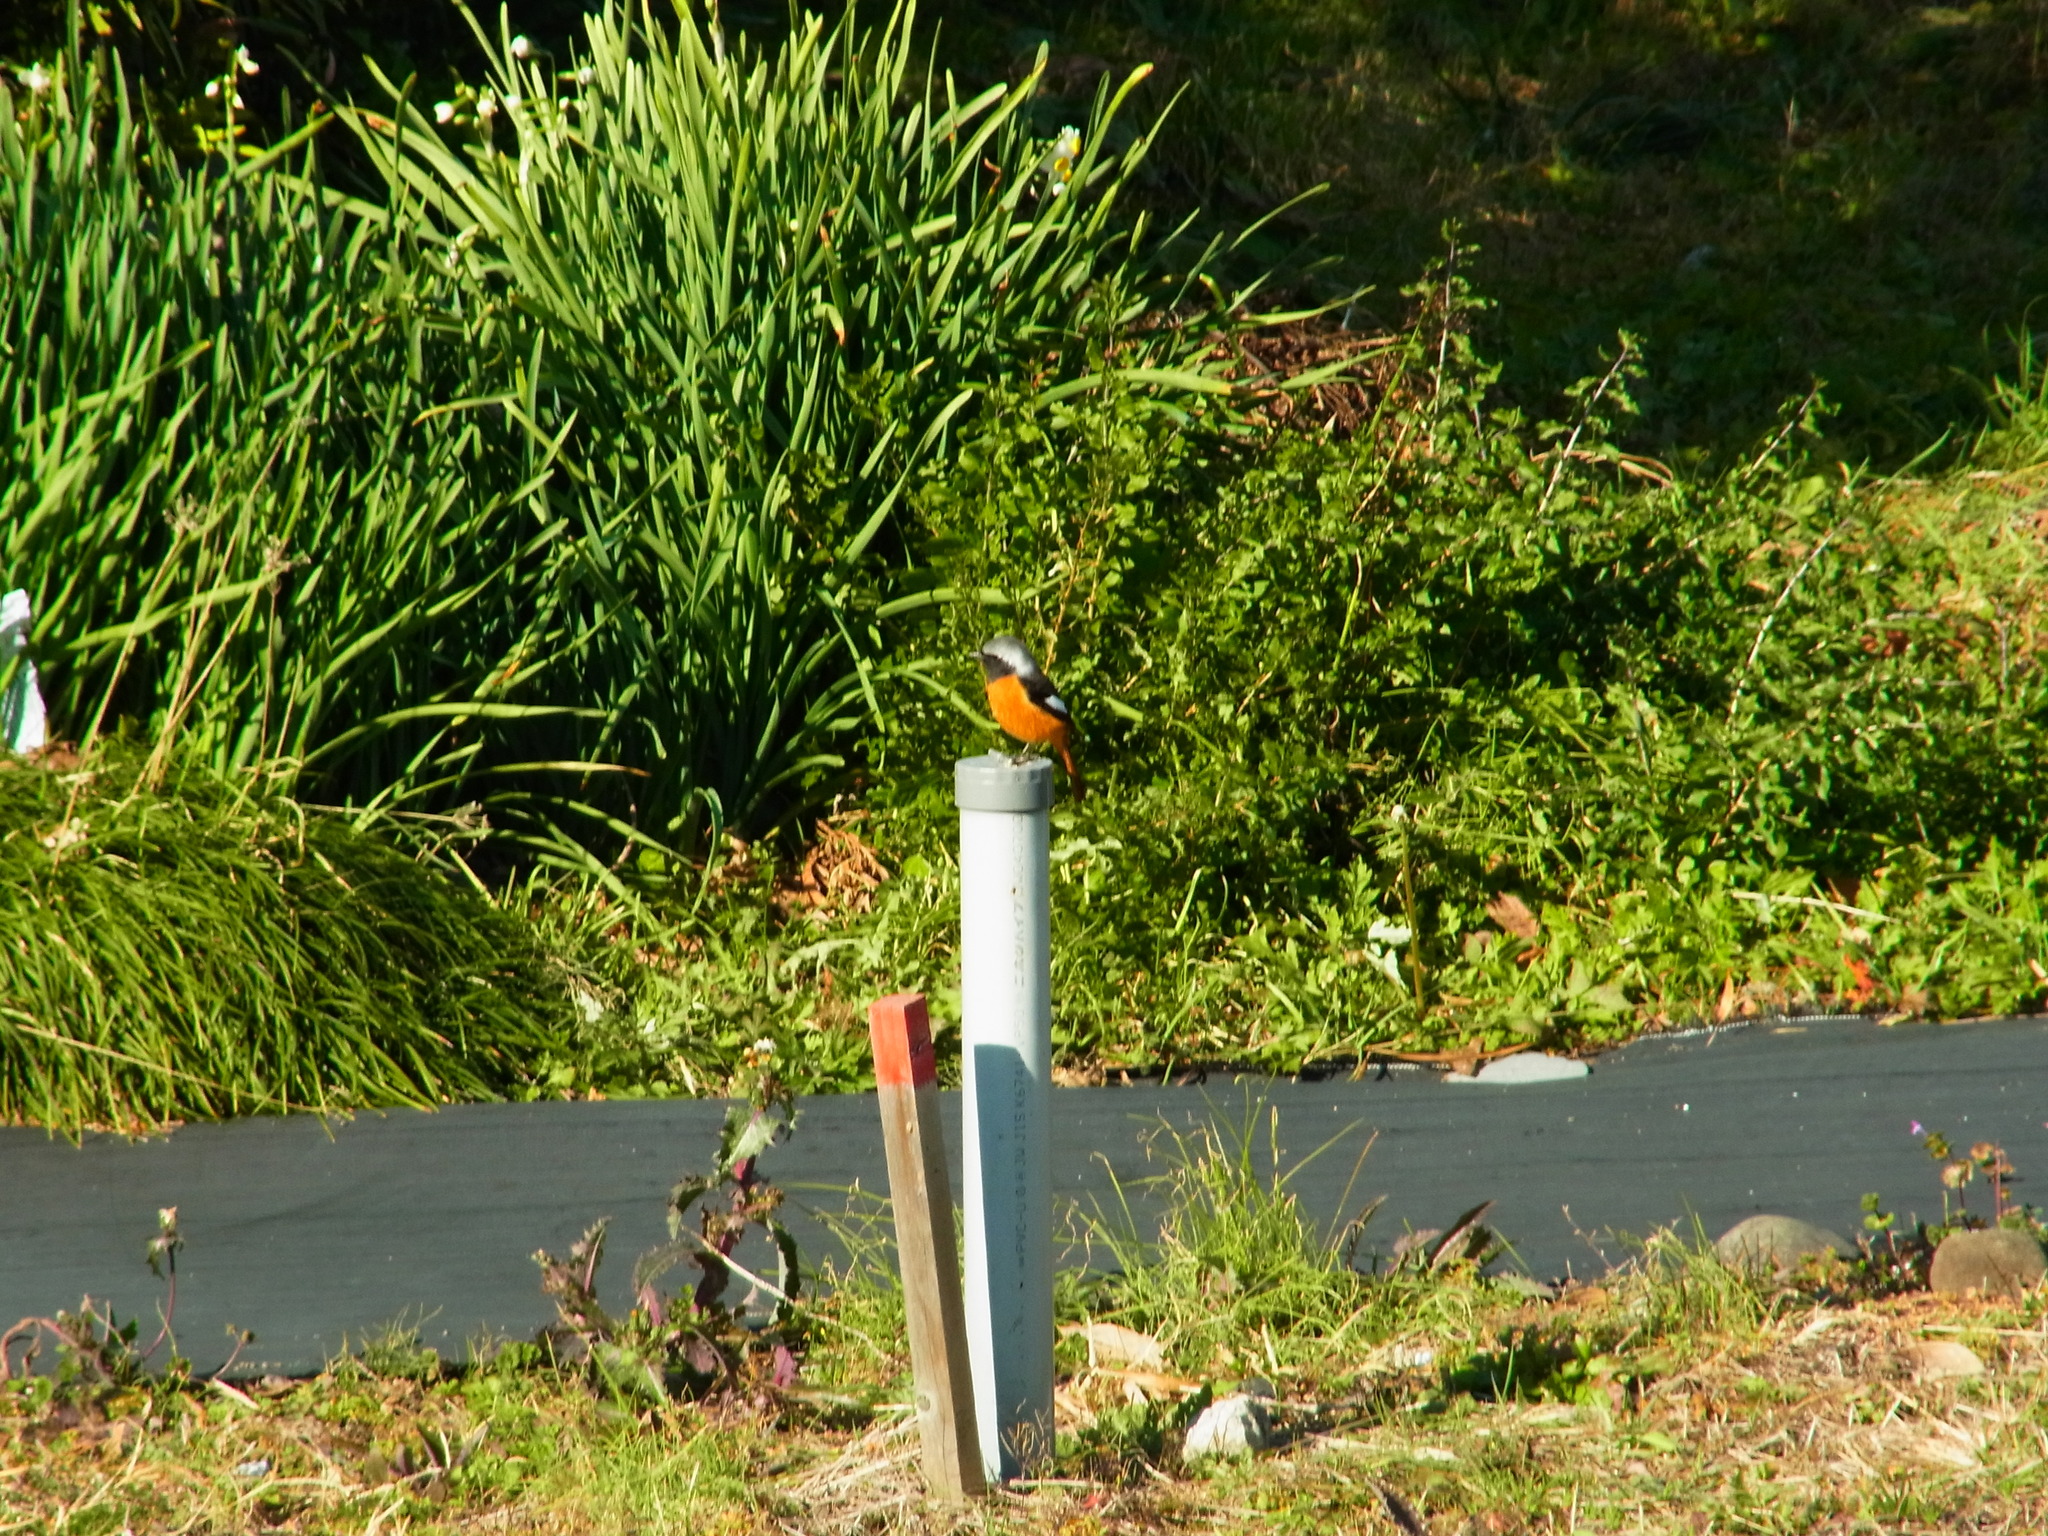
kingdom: Animalia
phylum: Chordata
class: Aves
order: Passeriformes
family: Muscicapidae
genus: Phoenicurus
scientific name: Phoenicurus auroreus
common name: Daurian redstart
